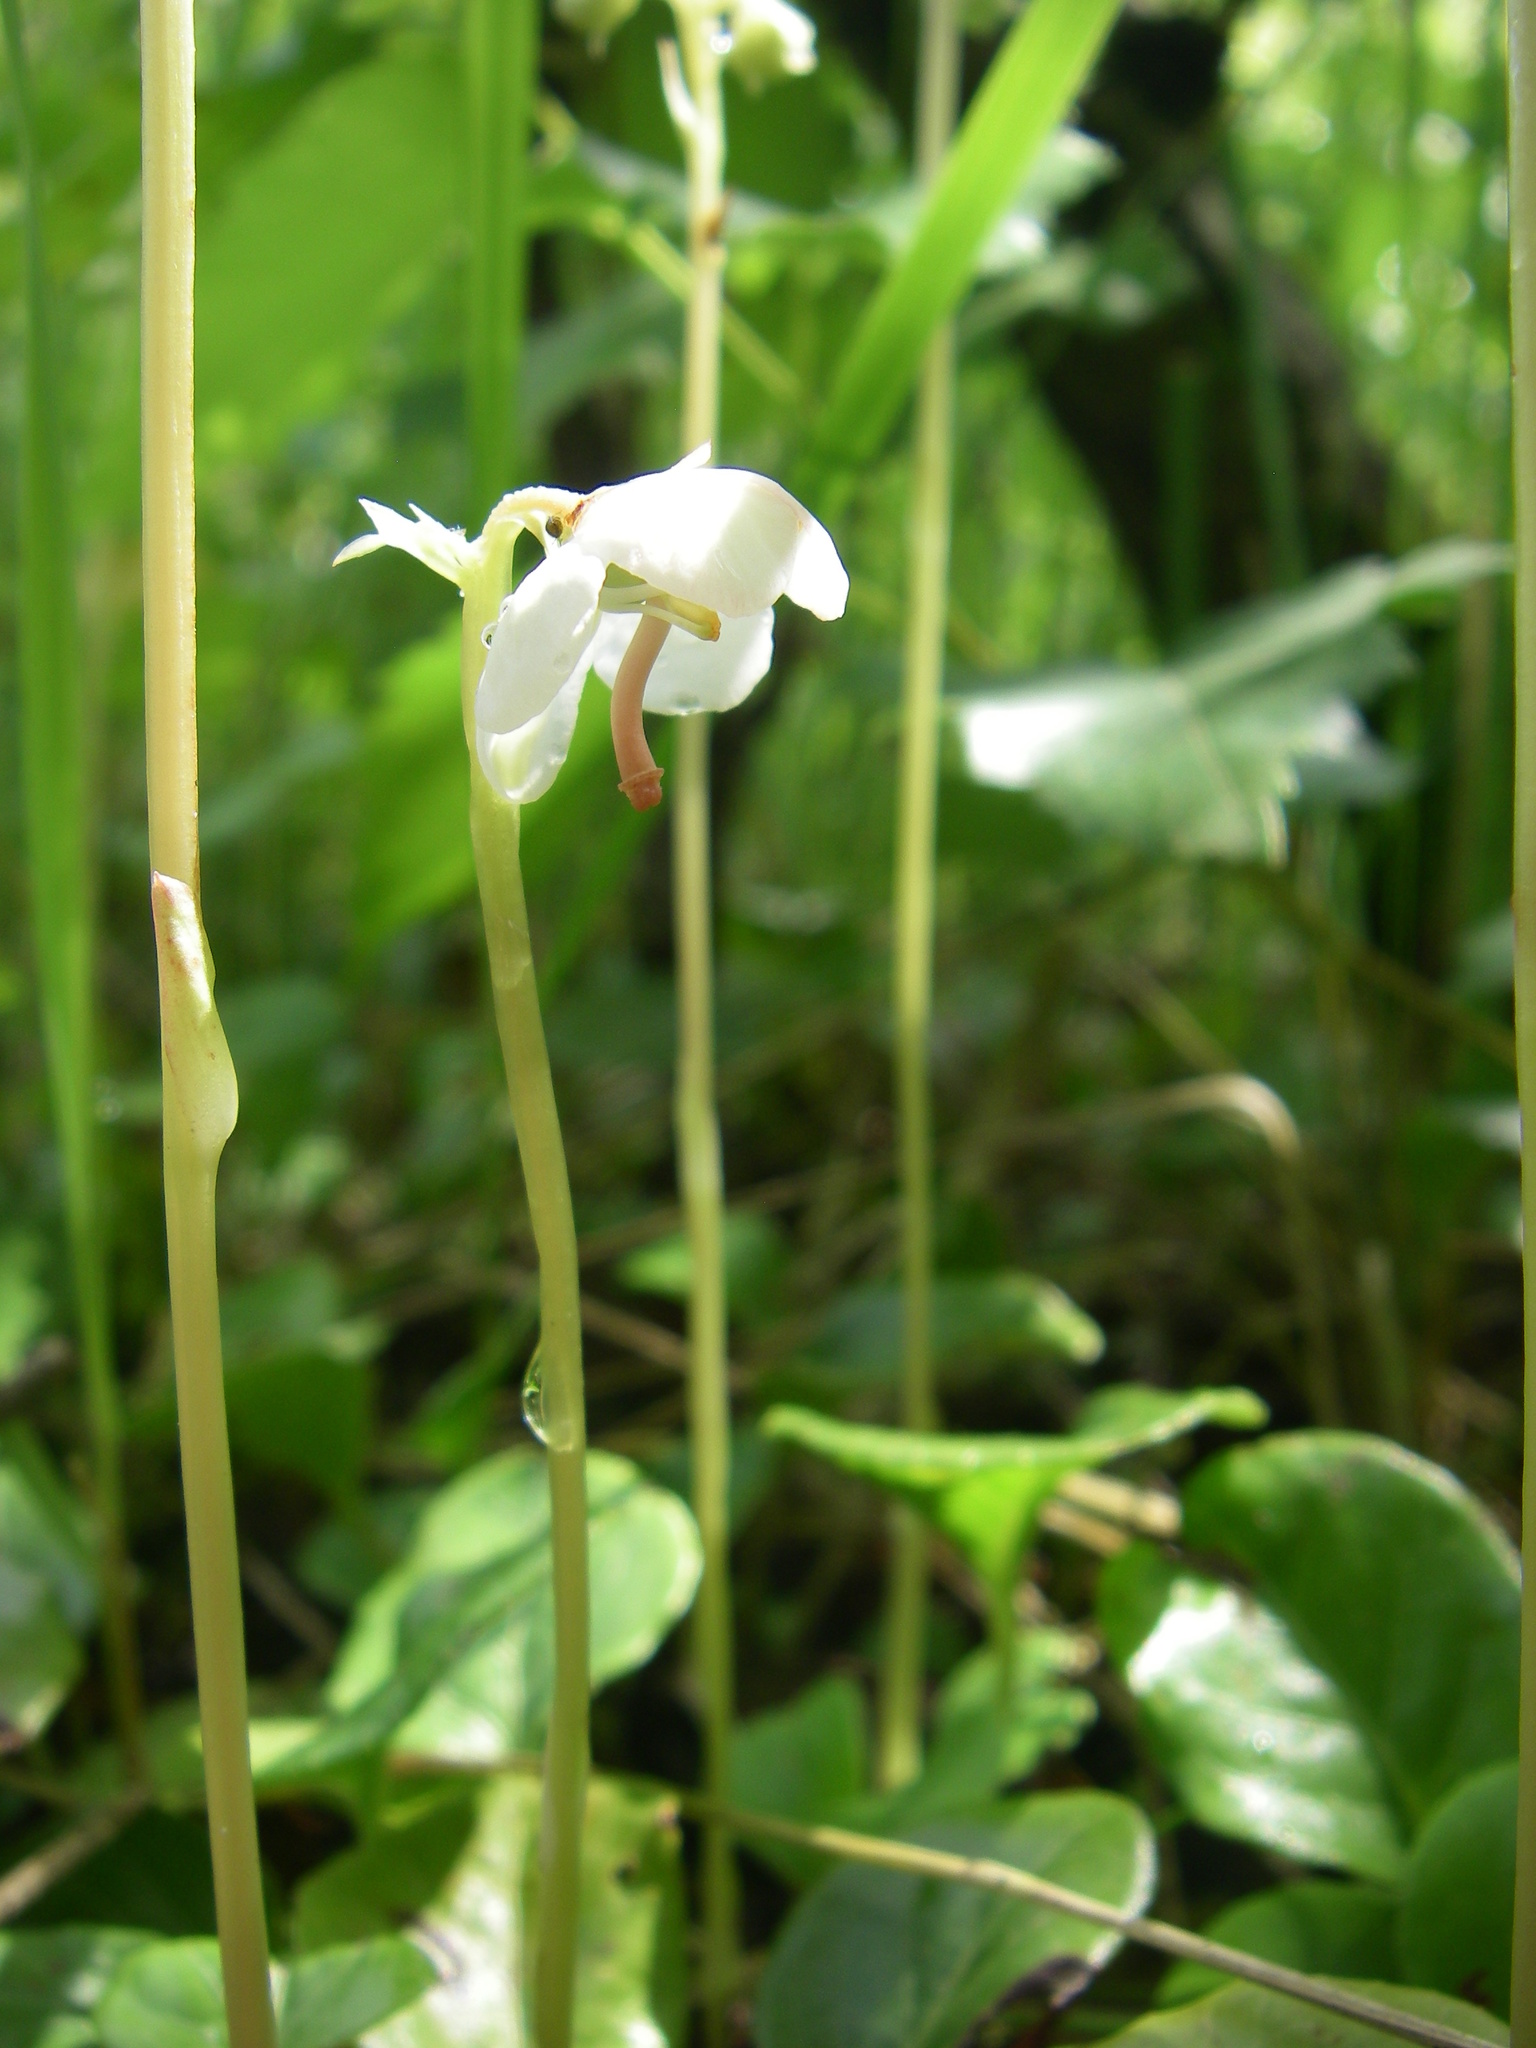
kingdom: Plantae
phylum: Tracheophyta
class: Magnoliopsida
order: Ericales
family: Ericaceae
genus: Pyrola
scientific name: Pyrola rotundifolia
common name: Round-leaved wintergreen
